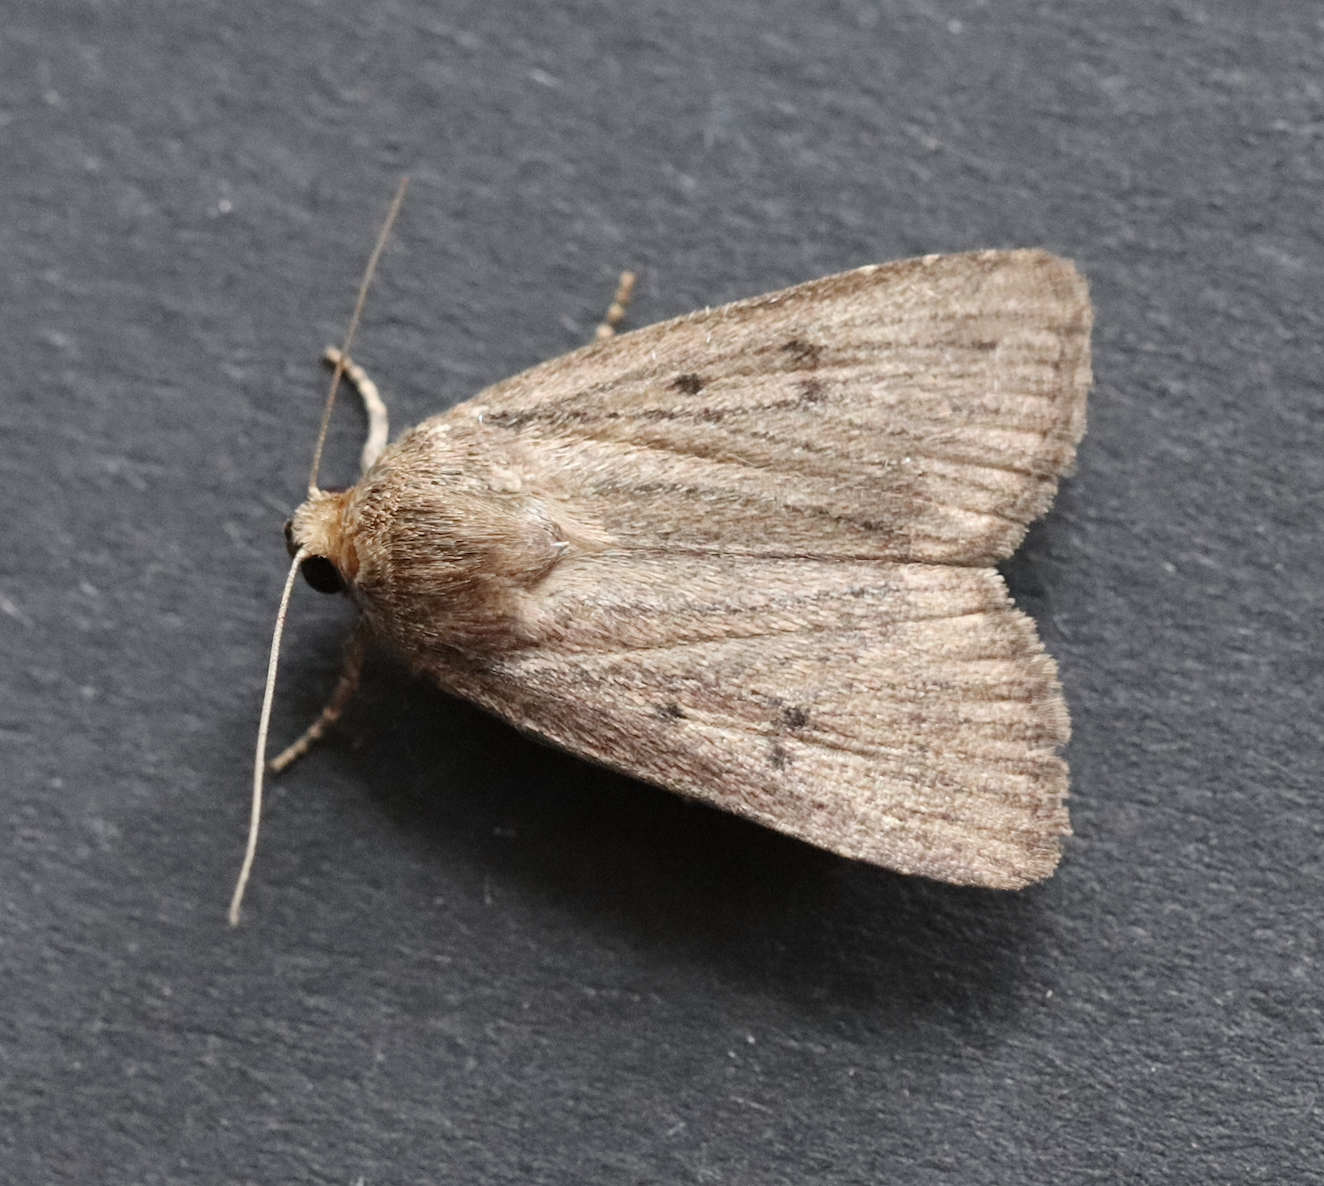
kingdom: Animalia
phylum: Arthropoda
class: Insecta
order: Lepidoptera
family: Noctuidae
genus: Hoplodrina
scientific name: Hoplodrina ambigua
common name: Vine's rustic
